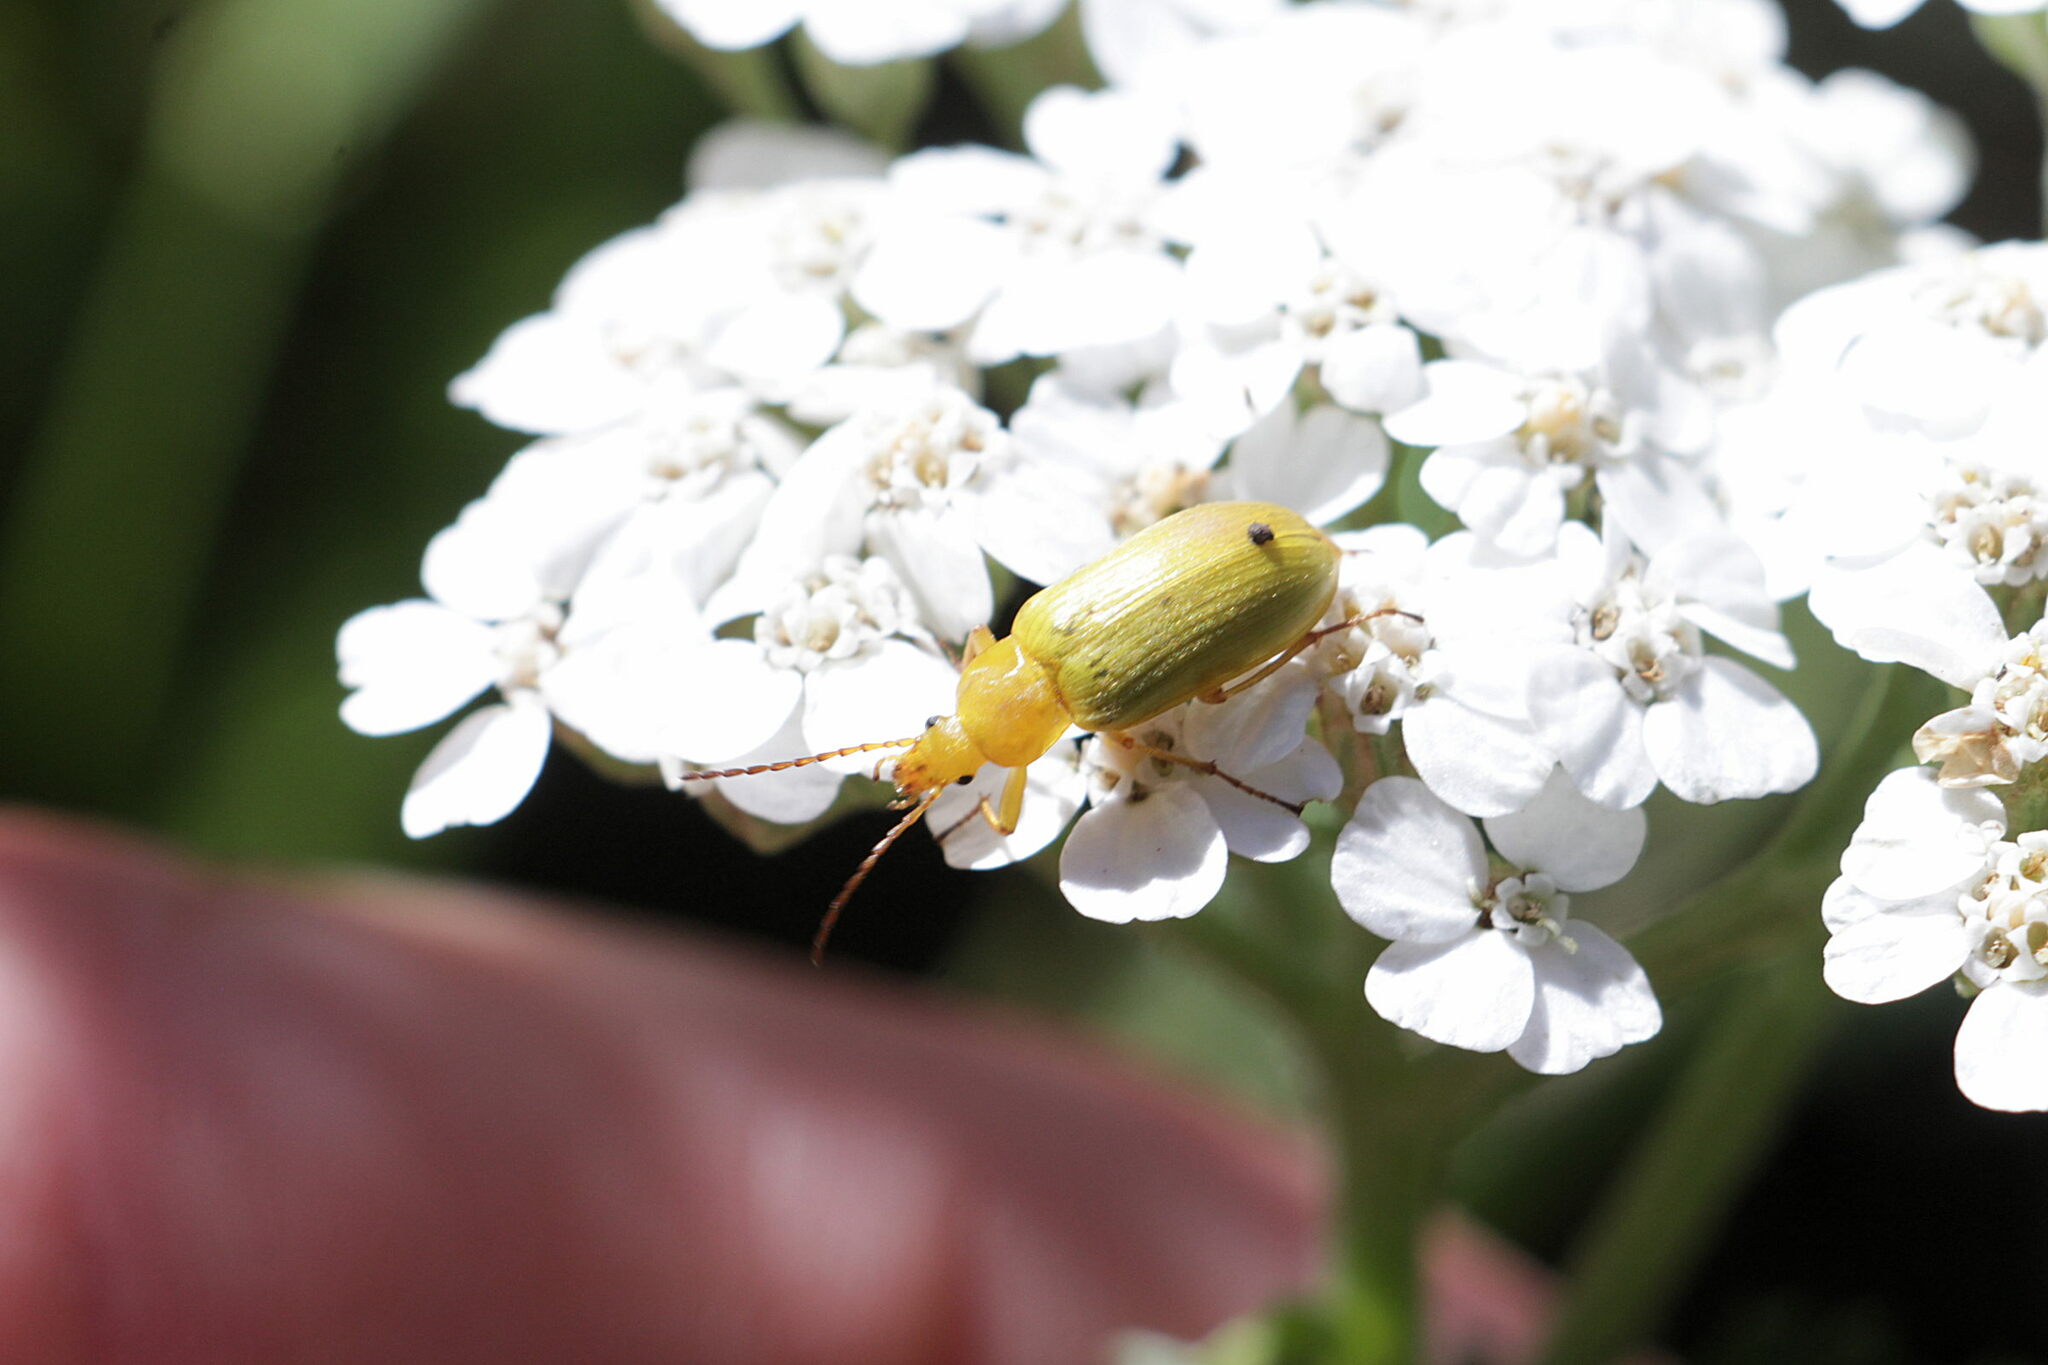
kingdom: Animalia
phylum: Arthropoda
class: Insecta
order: Coleoptera
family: Tenebrionidae
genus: Cteniopus
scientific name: Cteniopus sulphureus
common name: Sulphur beetle
